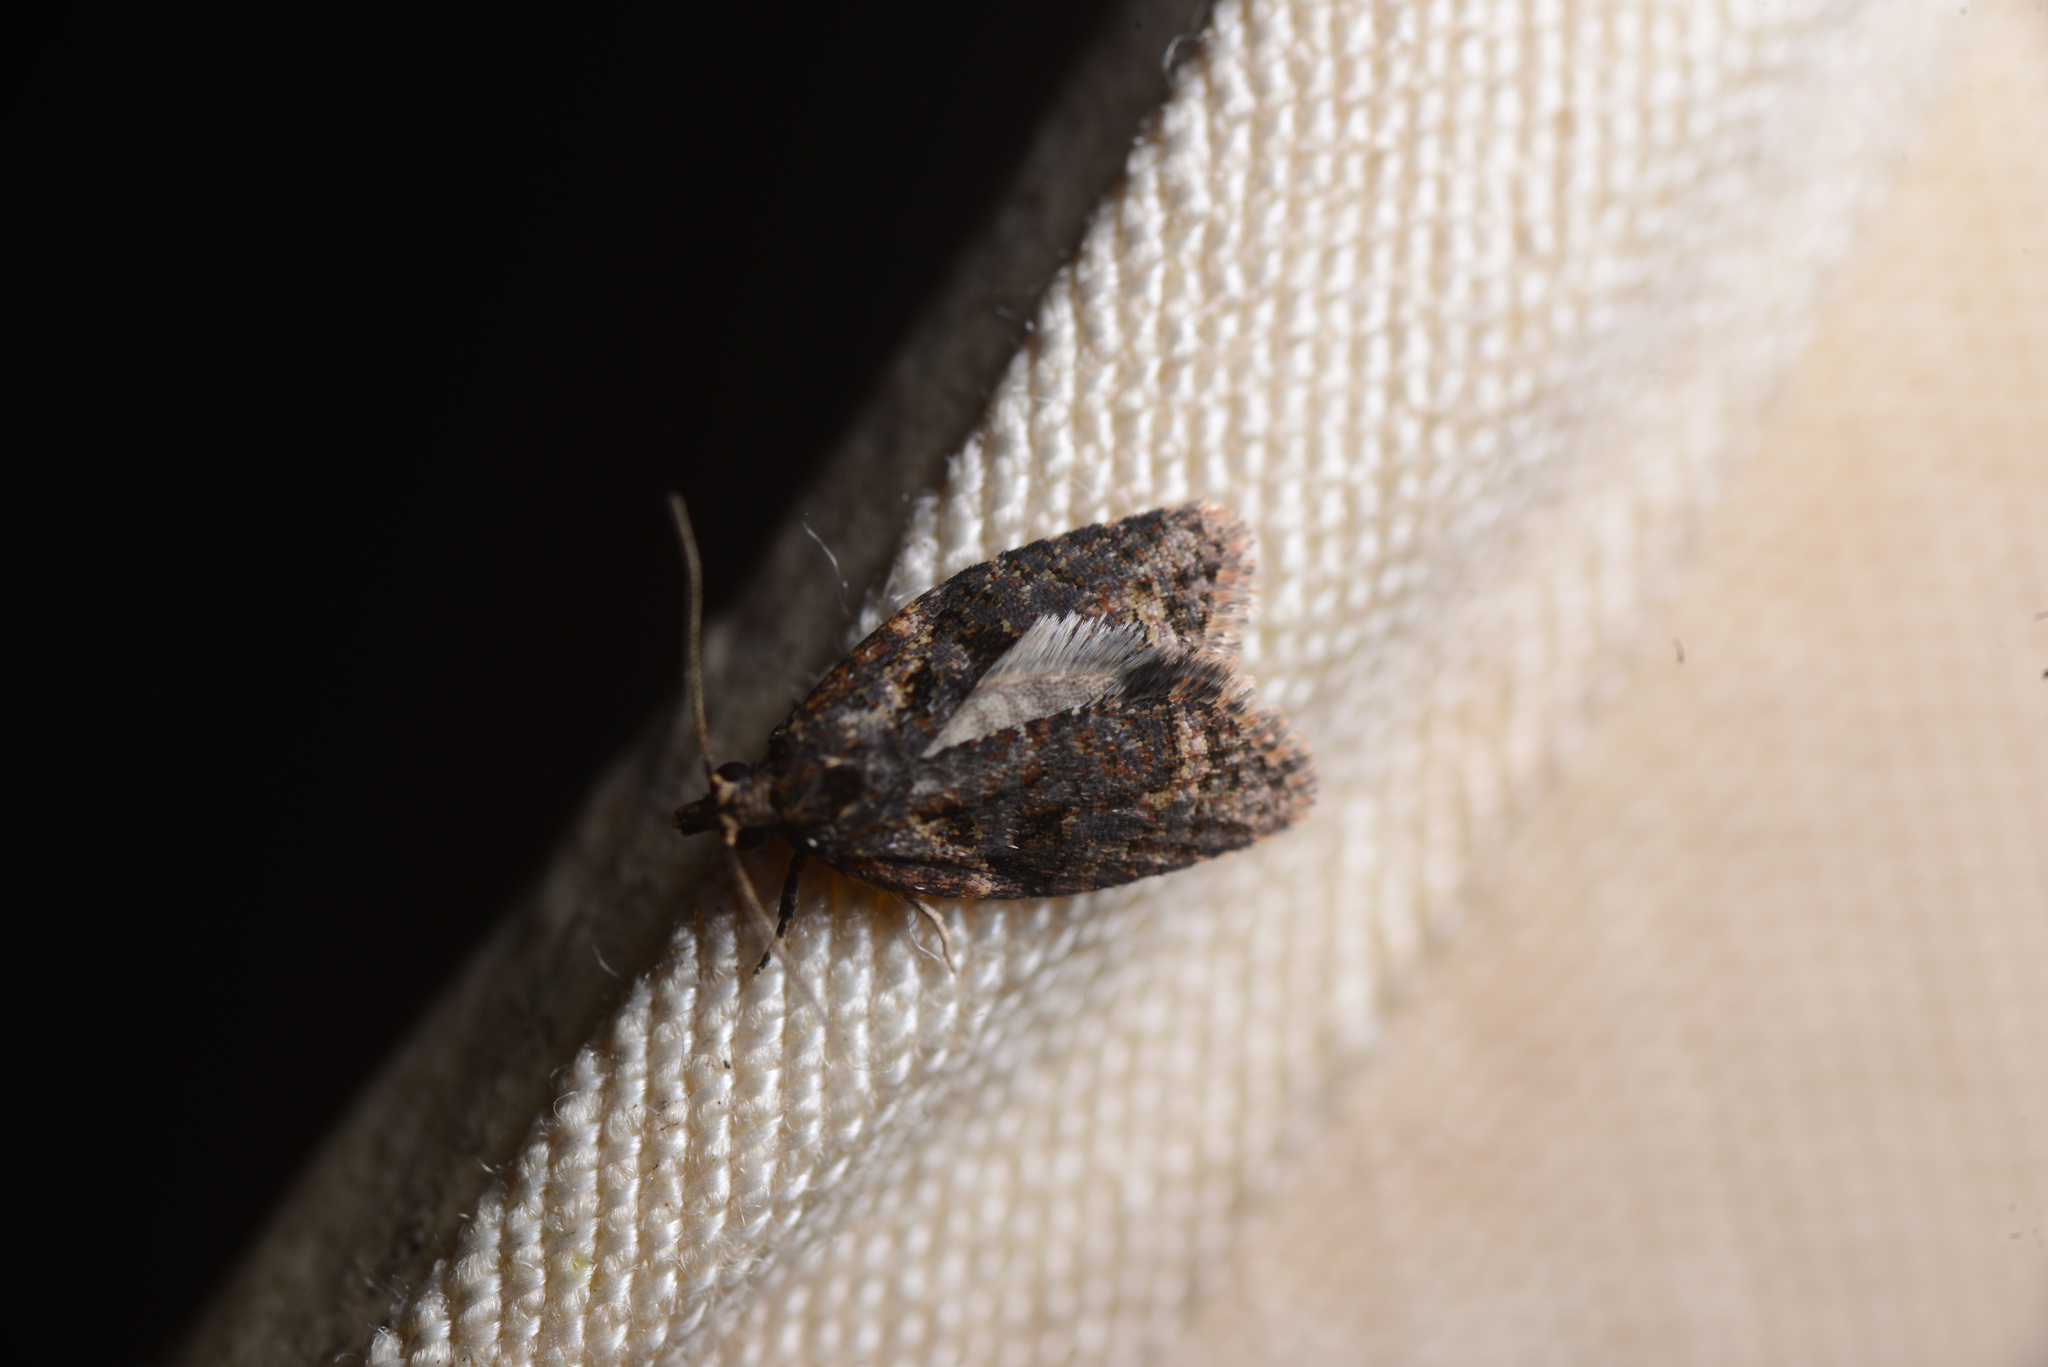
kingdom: Animalia
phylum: Arthropoda
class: Insecta
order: Lepidoptera
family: Tortricidae
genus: Capua
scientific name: Capua intractana
